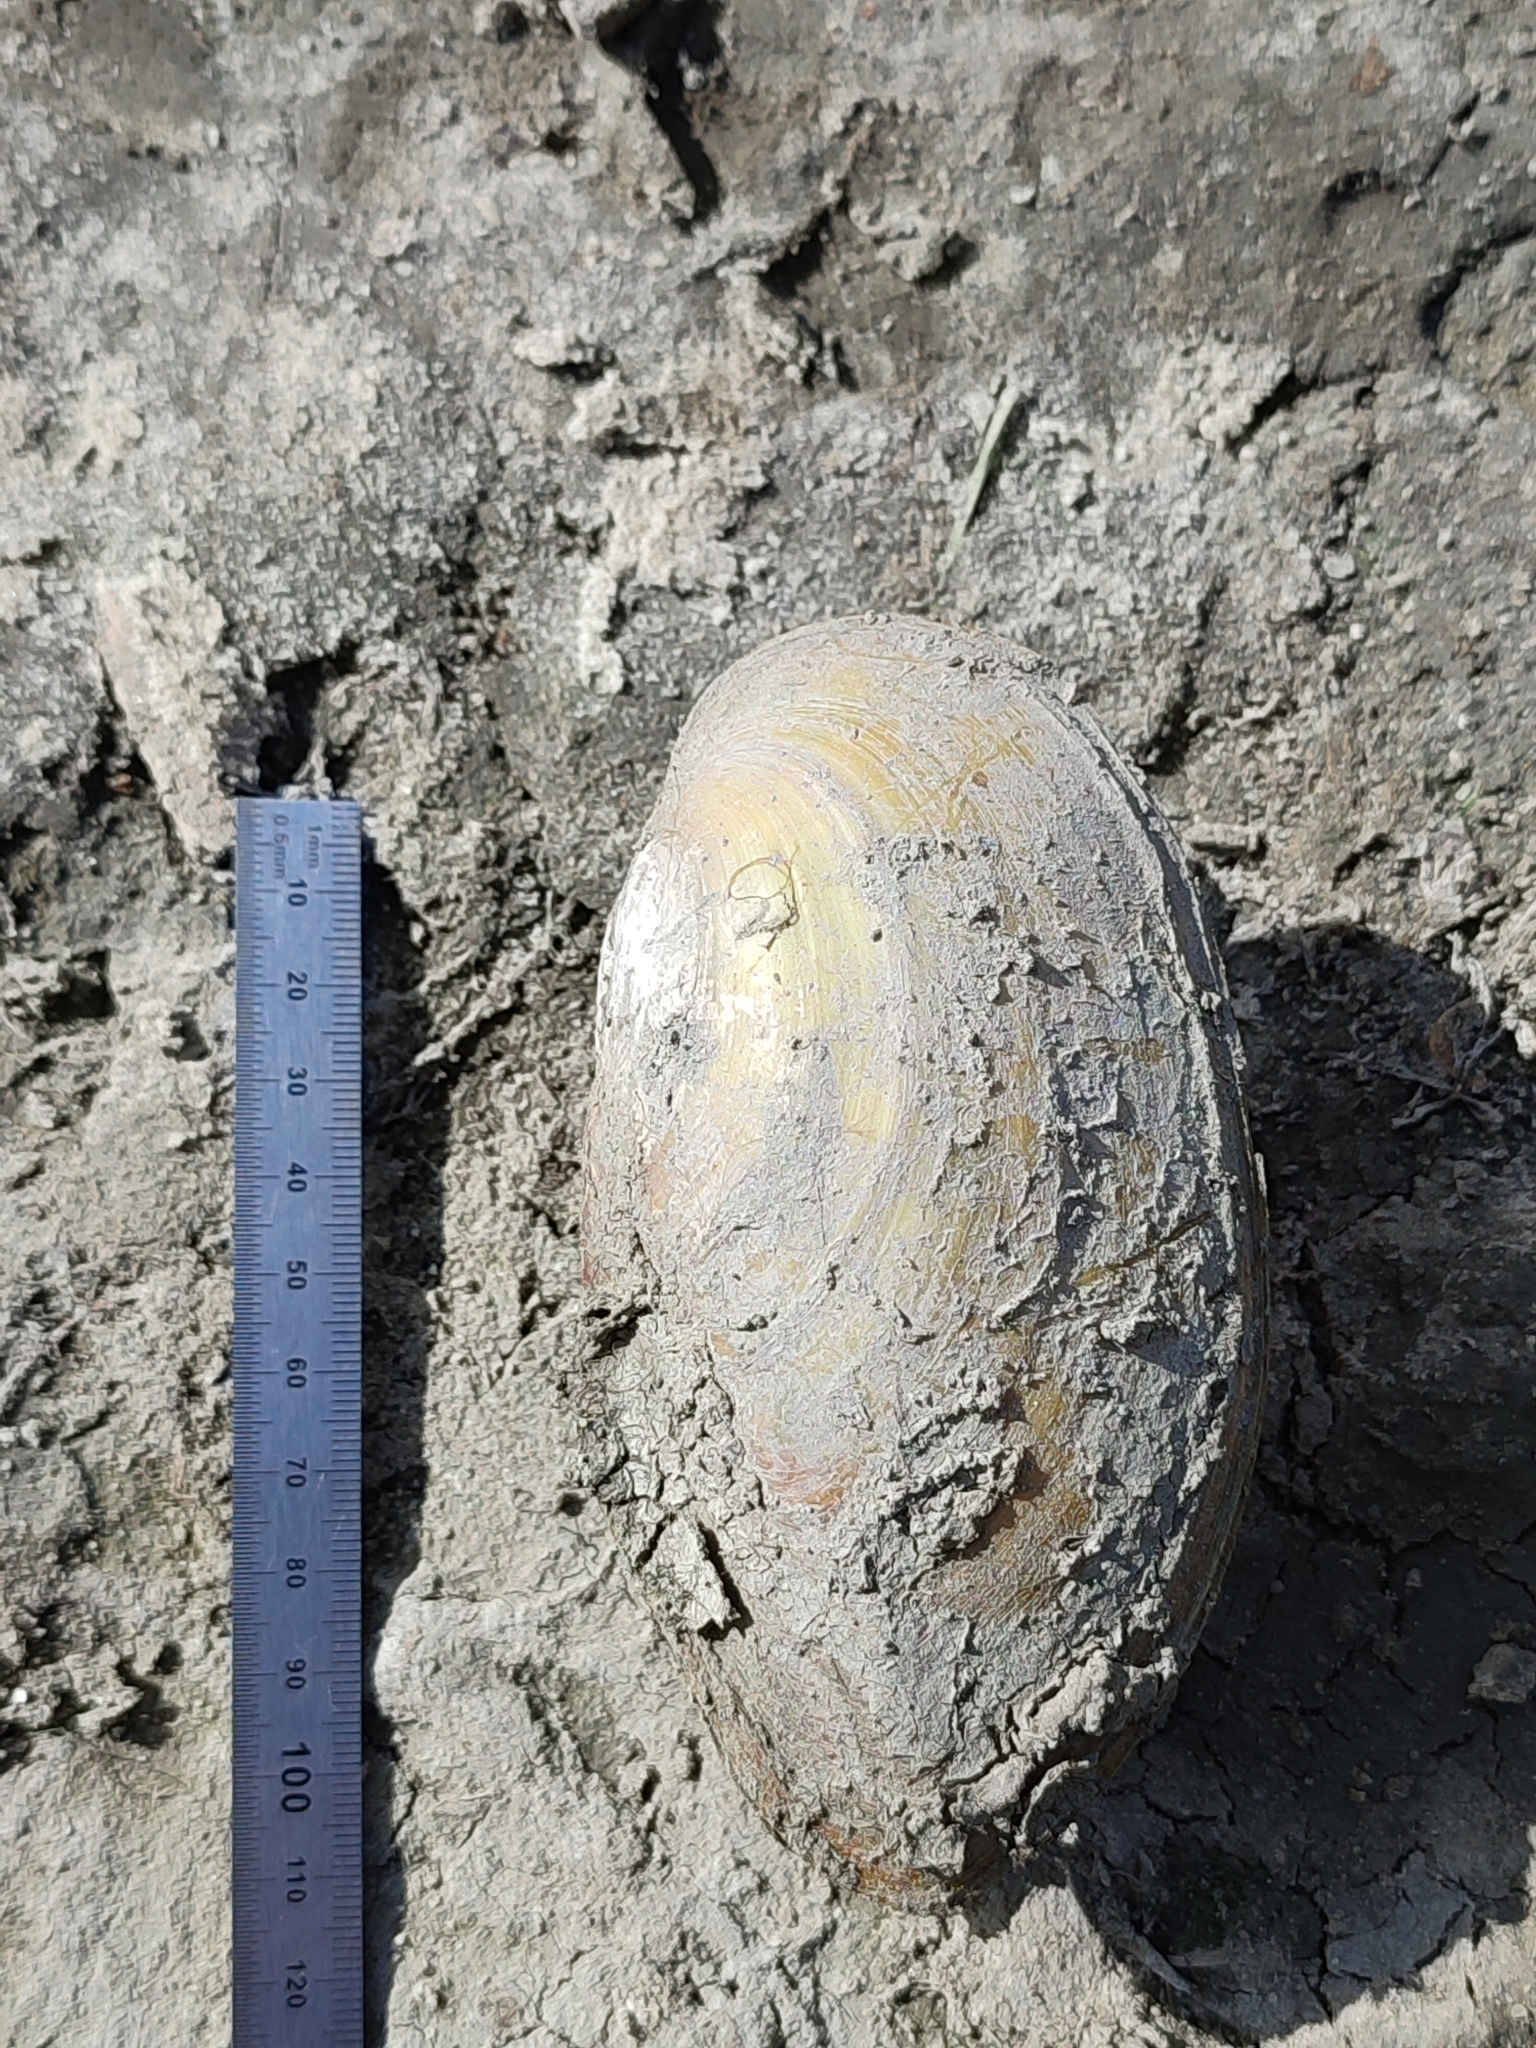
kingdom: Animalia
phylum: Mollusca
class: Bivalvia
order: Unionida
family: Unionidae
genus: Anodonta
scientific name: Anodonta cygnea
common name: Swan mussel
